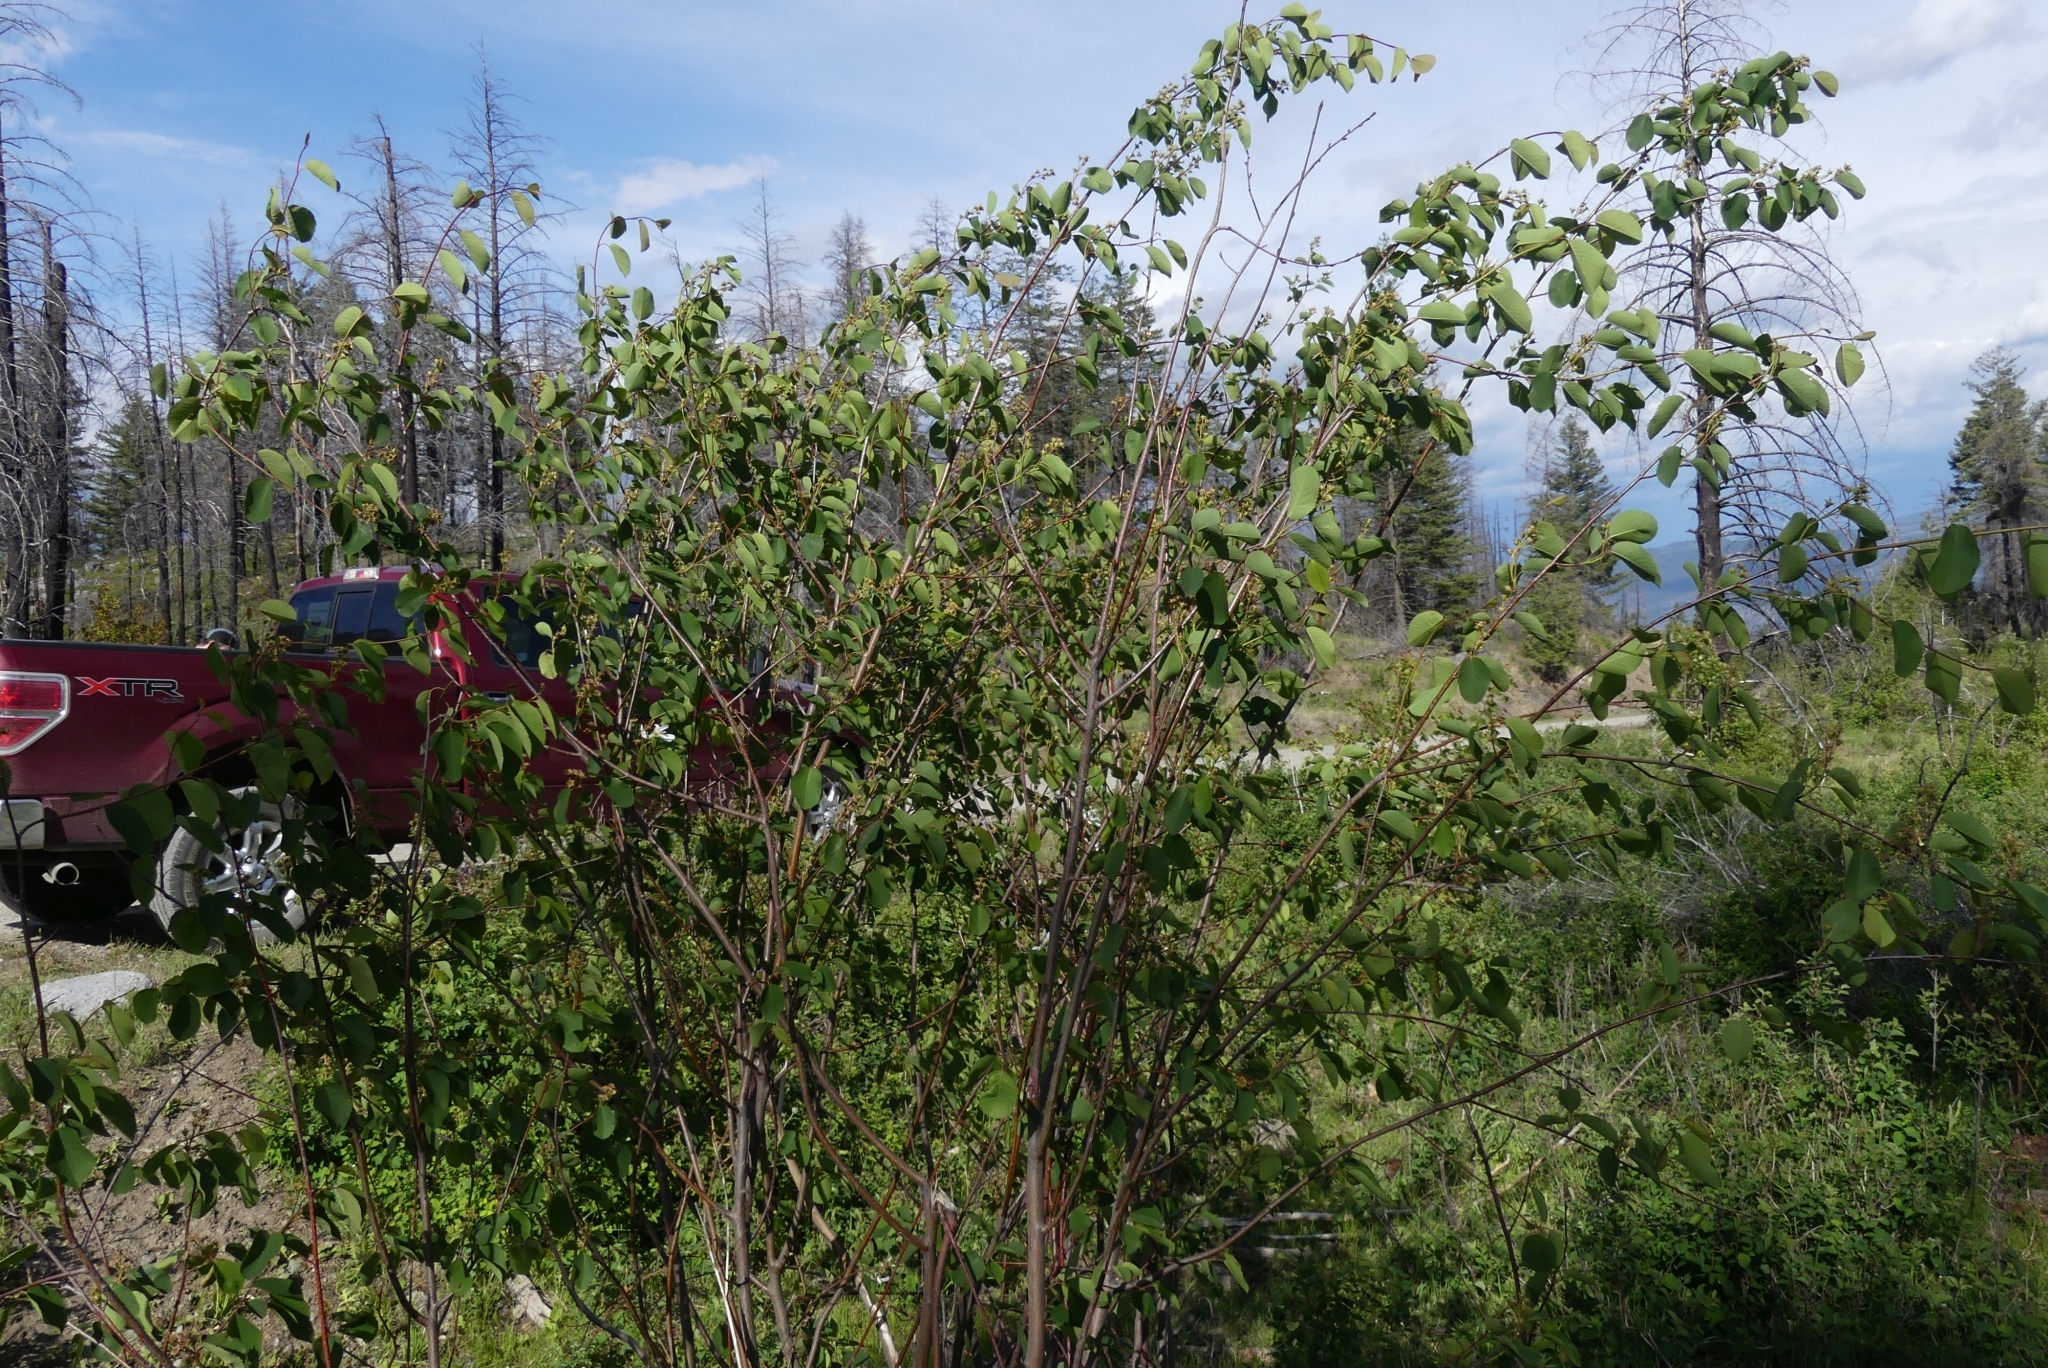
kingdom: Plantae
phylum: Tracheophyta
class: Magnoliopsida
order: Rosales
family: Rosaceae
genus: Amelanchier
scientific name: Amelanchier alnifolia
